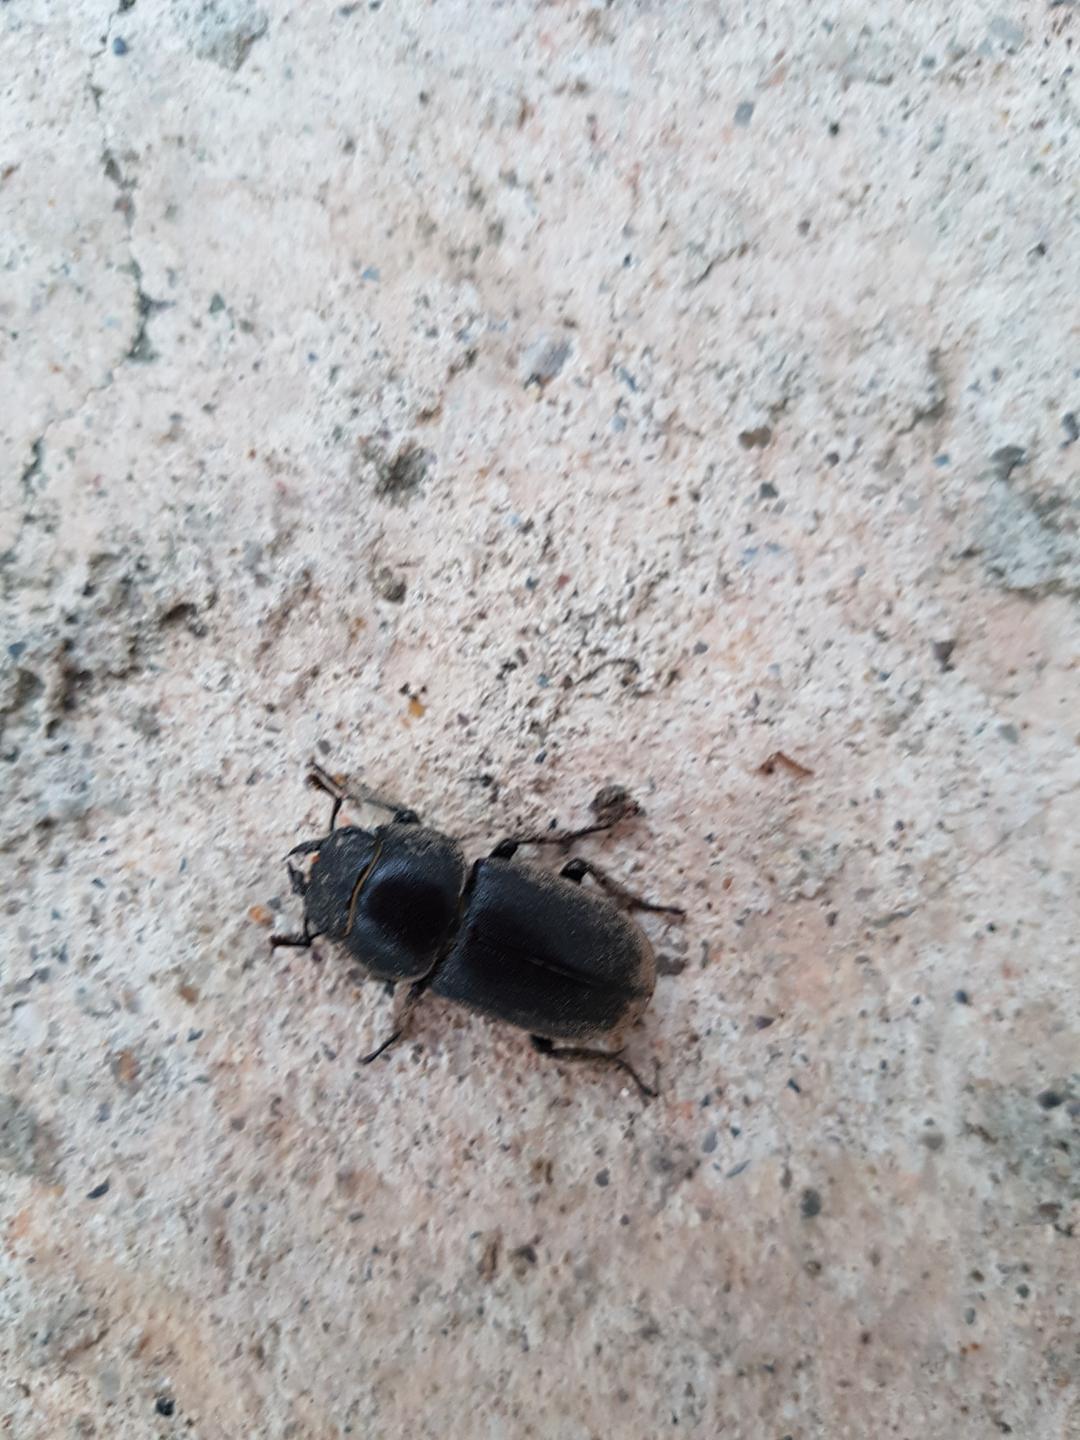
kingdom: Animalia
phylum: Arthropoda
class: Insecta
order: Coleoptera
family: Lucanidae
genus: Dorcus
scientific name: Dorcus parallelipipedus
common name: Lesser stag beetle
